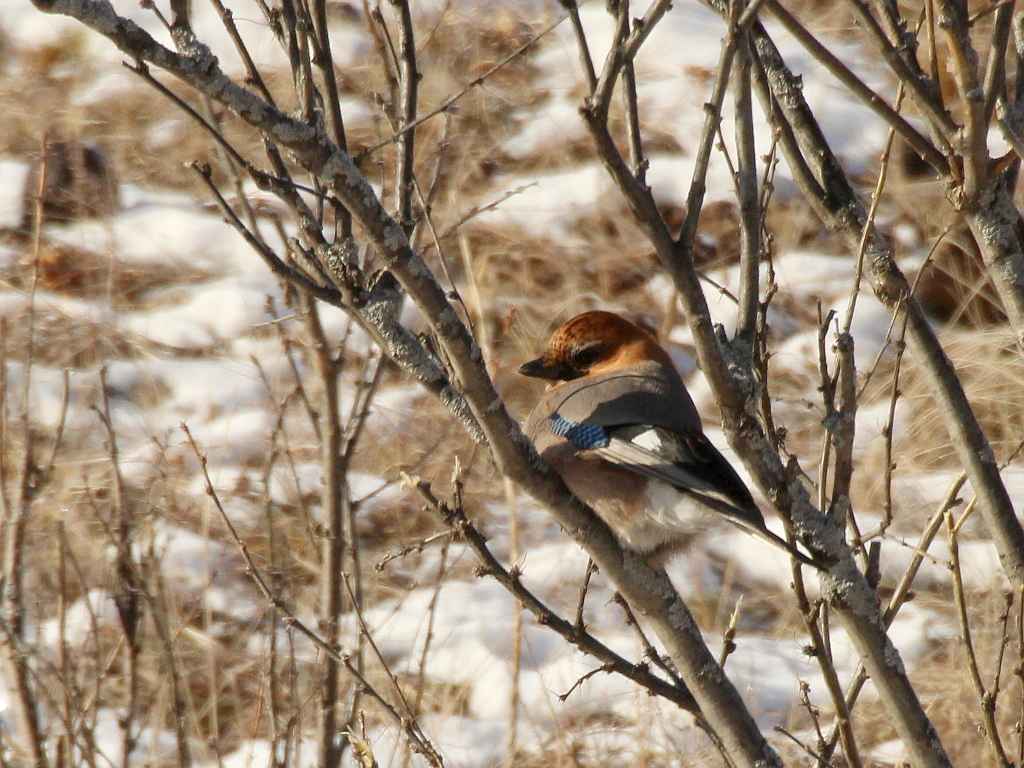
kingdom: Animalia
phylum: Chordata
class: Aves
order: Passeriformes
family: Corvidae
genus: Garrulus
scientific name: Garrulus glandarius
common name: Eurasian jay
